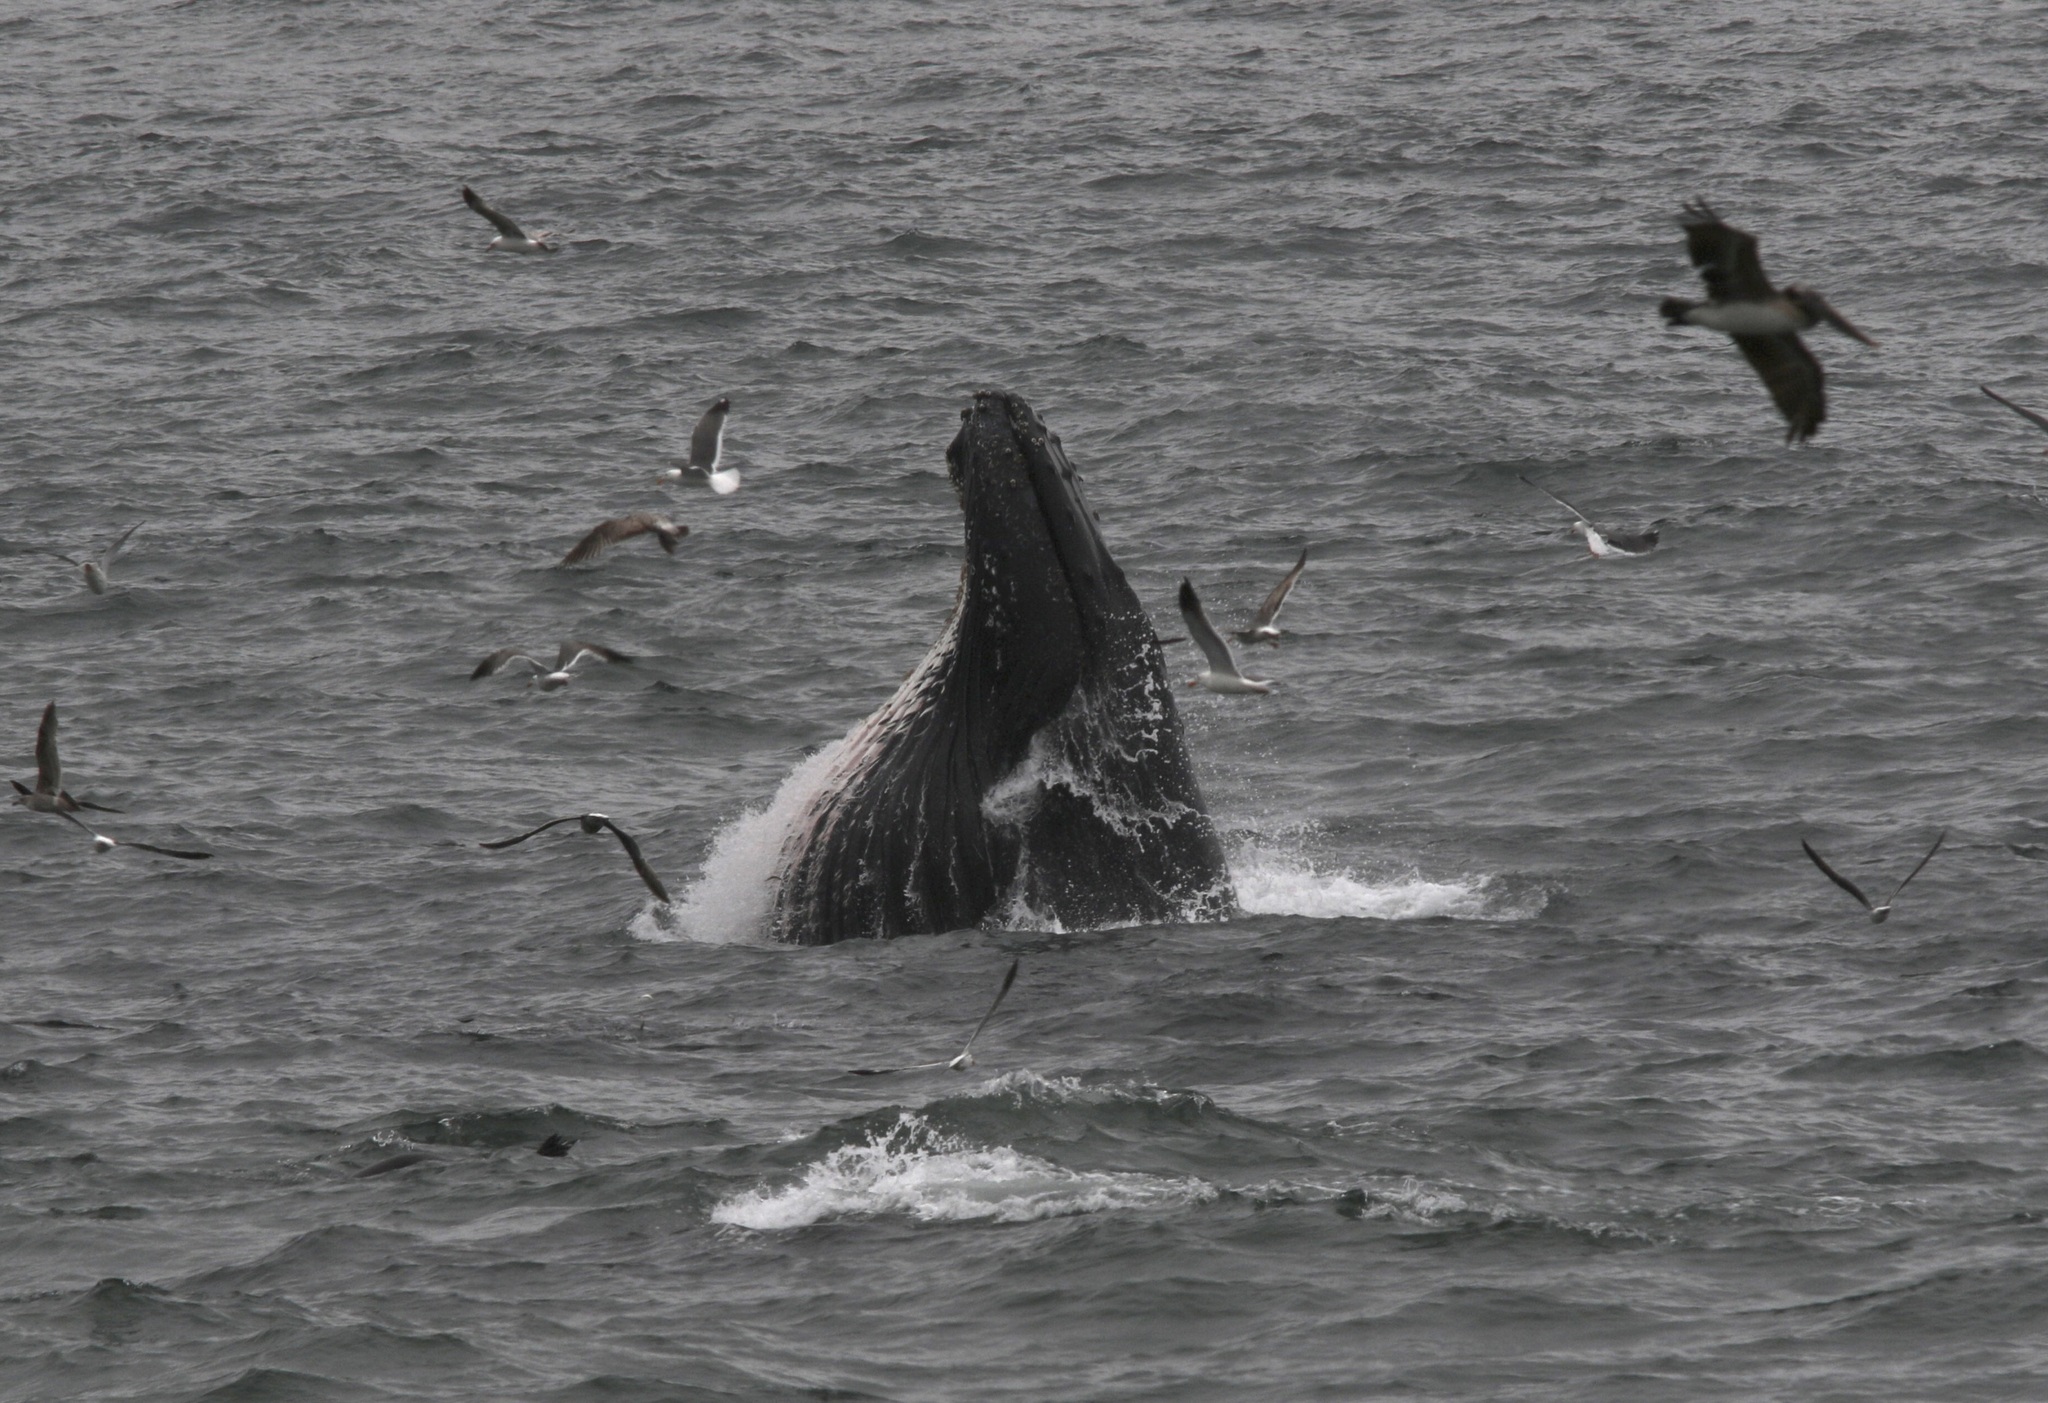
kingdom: Animalia
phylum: Chordata
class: Mammalia
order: Cetacea
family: Balaenopteridae
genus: Megaptera
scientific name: Megaptera novaeangliae
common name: Humpback whale
